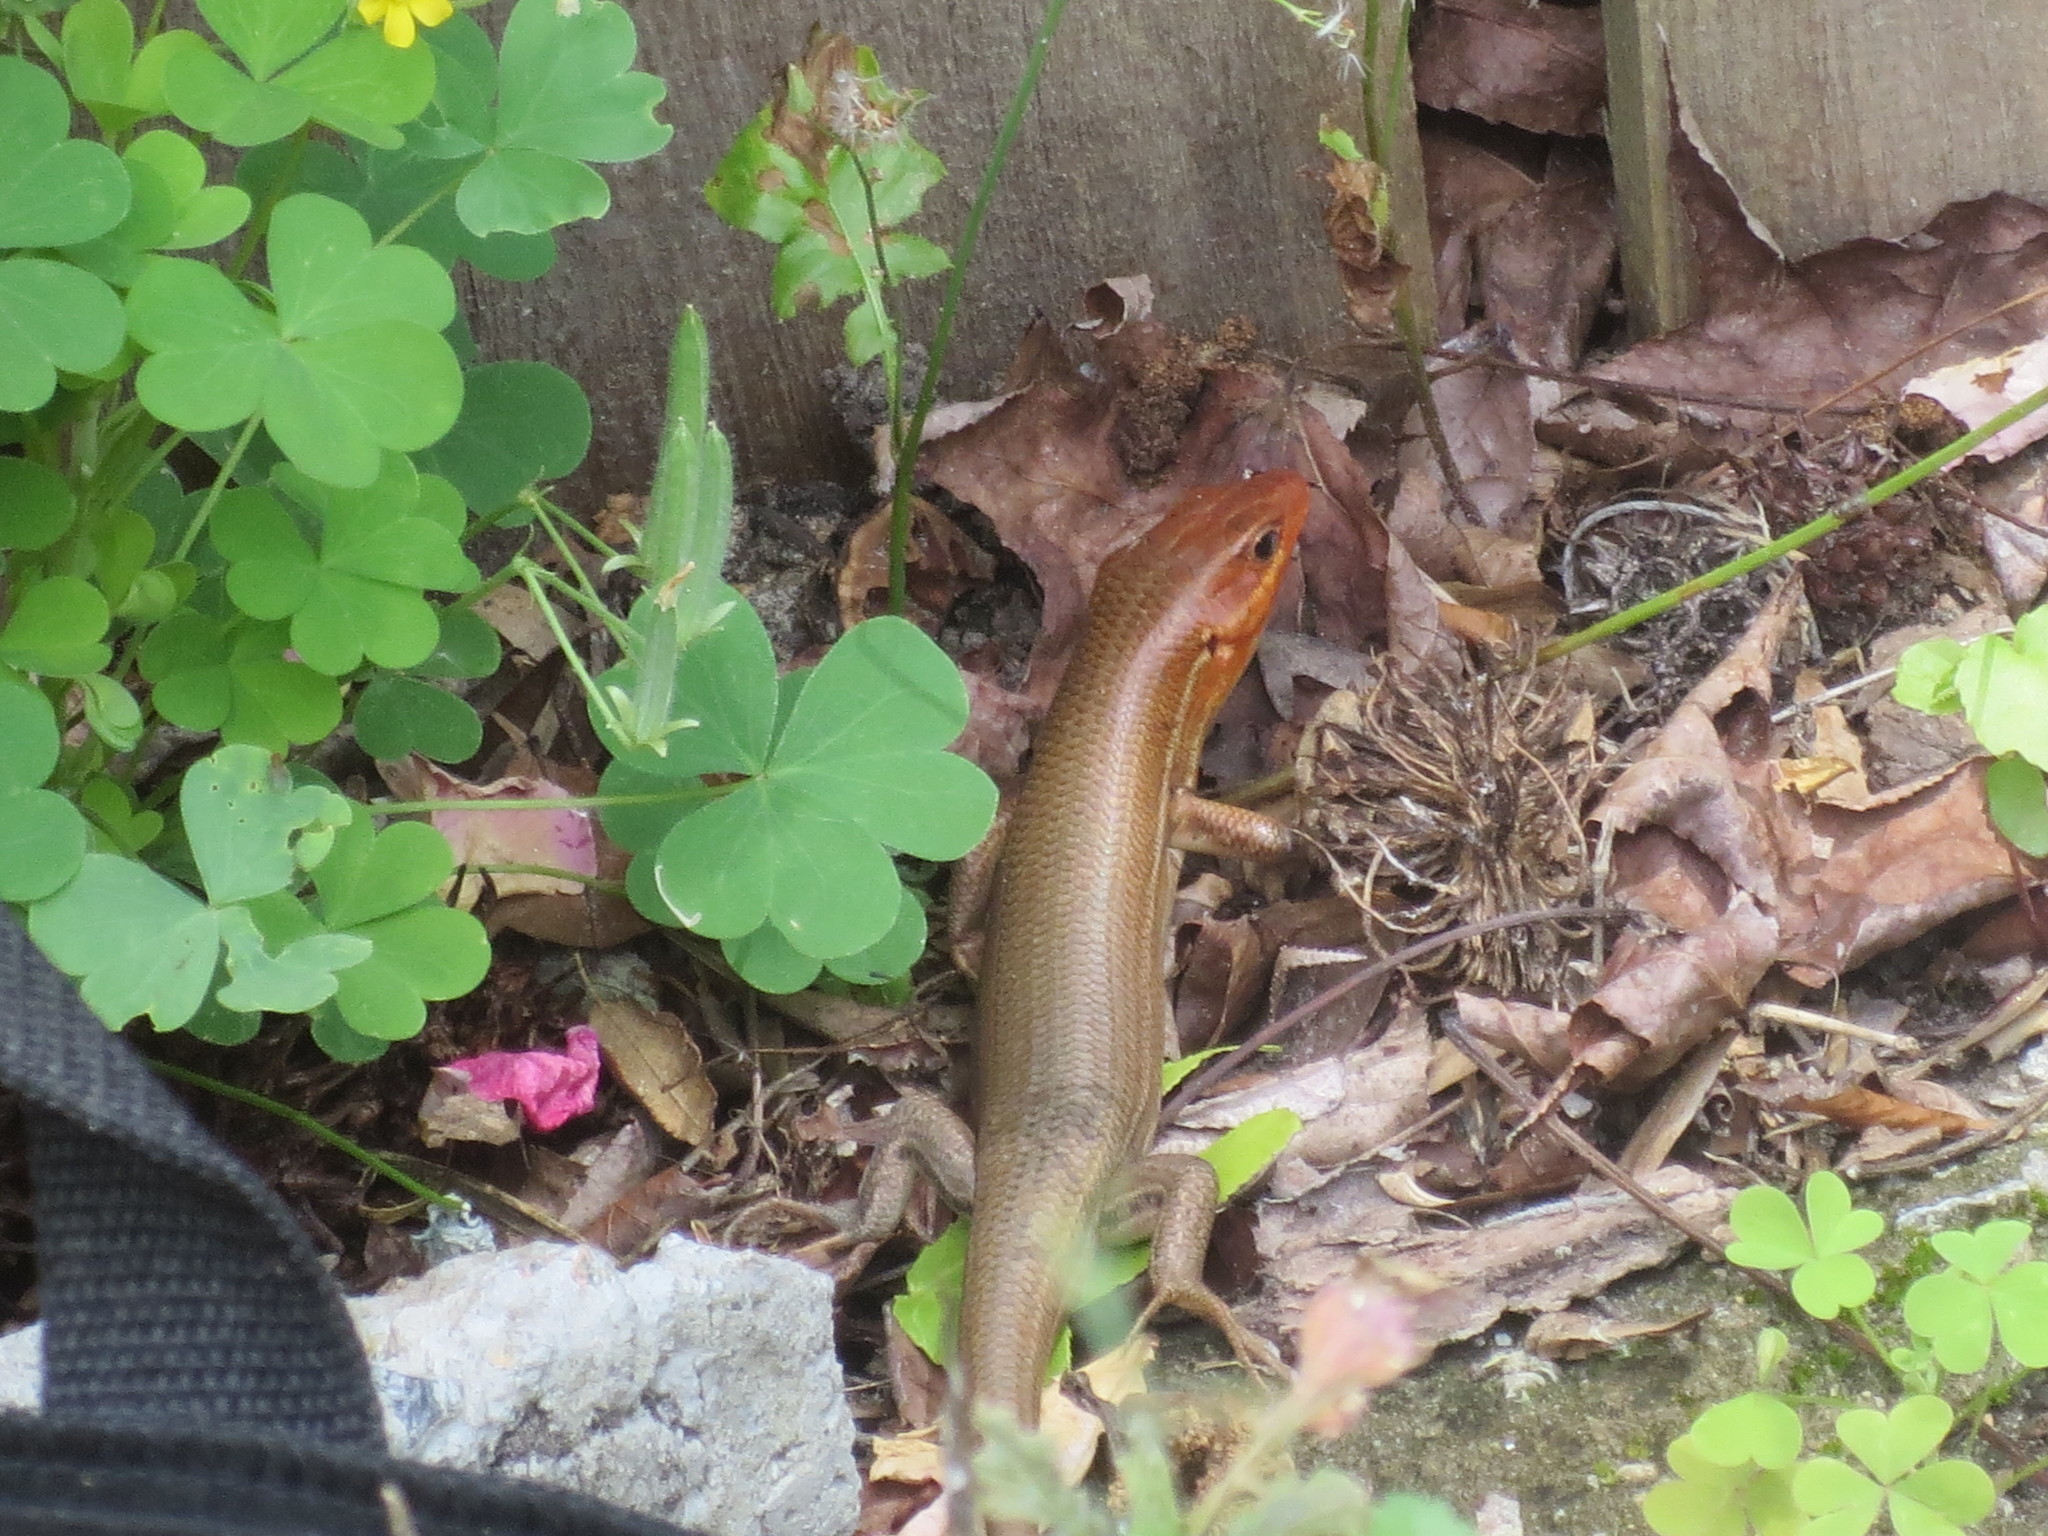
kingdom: Animalia
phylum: Chordata
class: Squamata
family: Scincidae
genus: Plestiodon
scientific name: Plestiodon laticeps
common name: Broadhead skink
